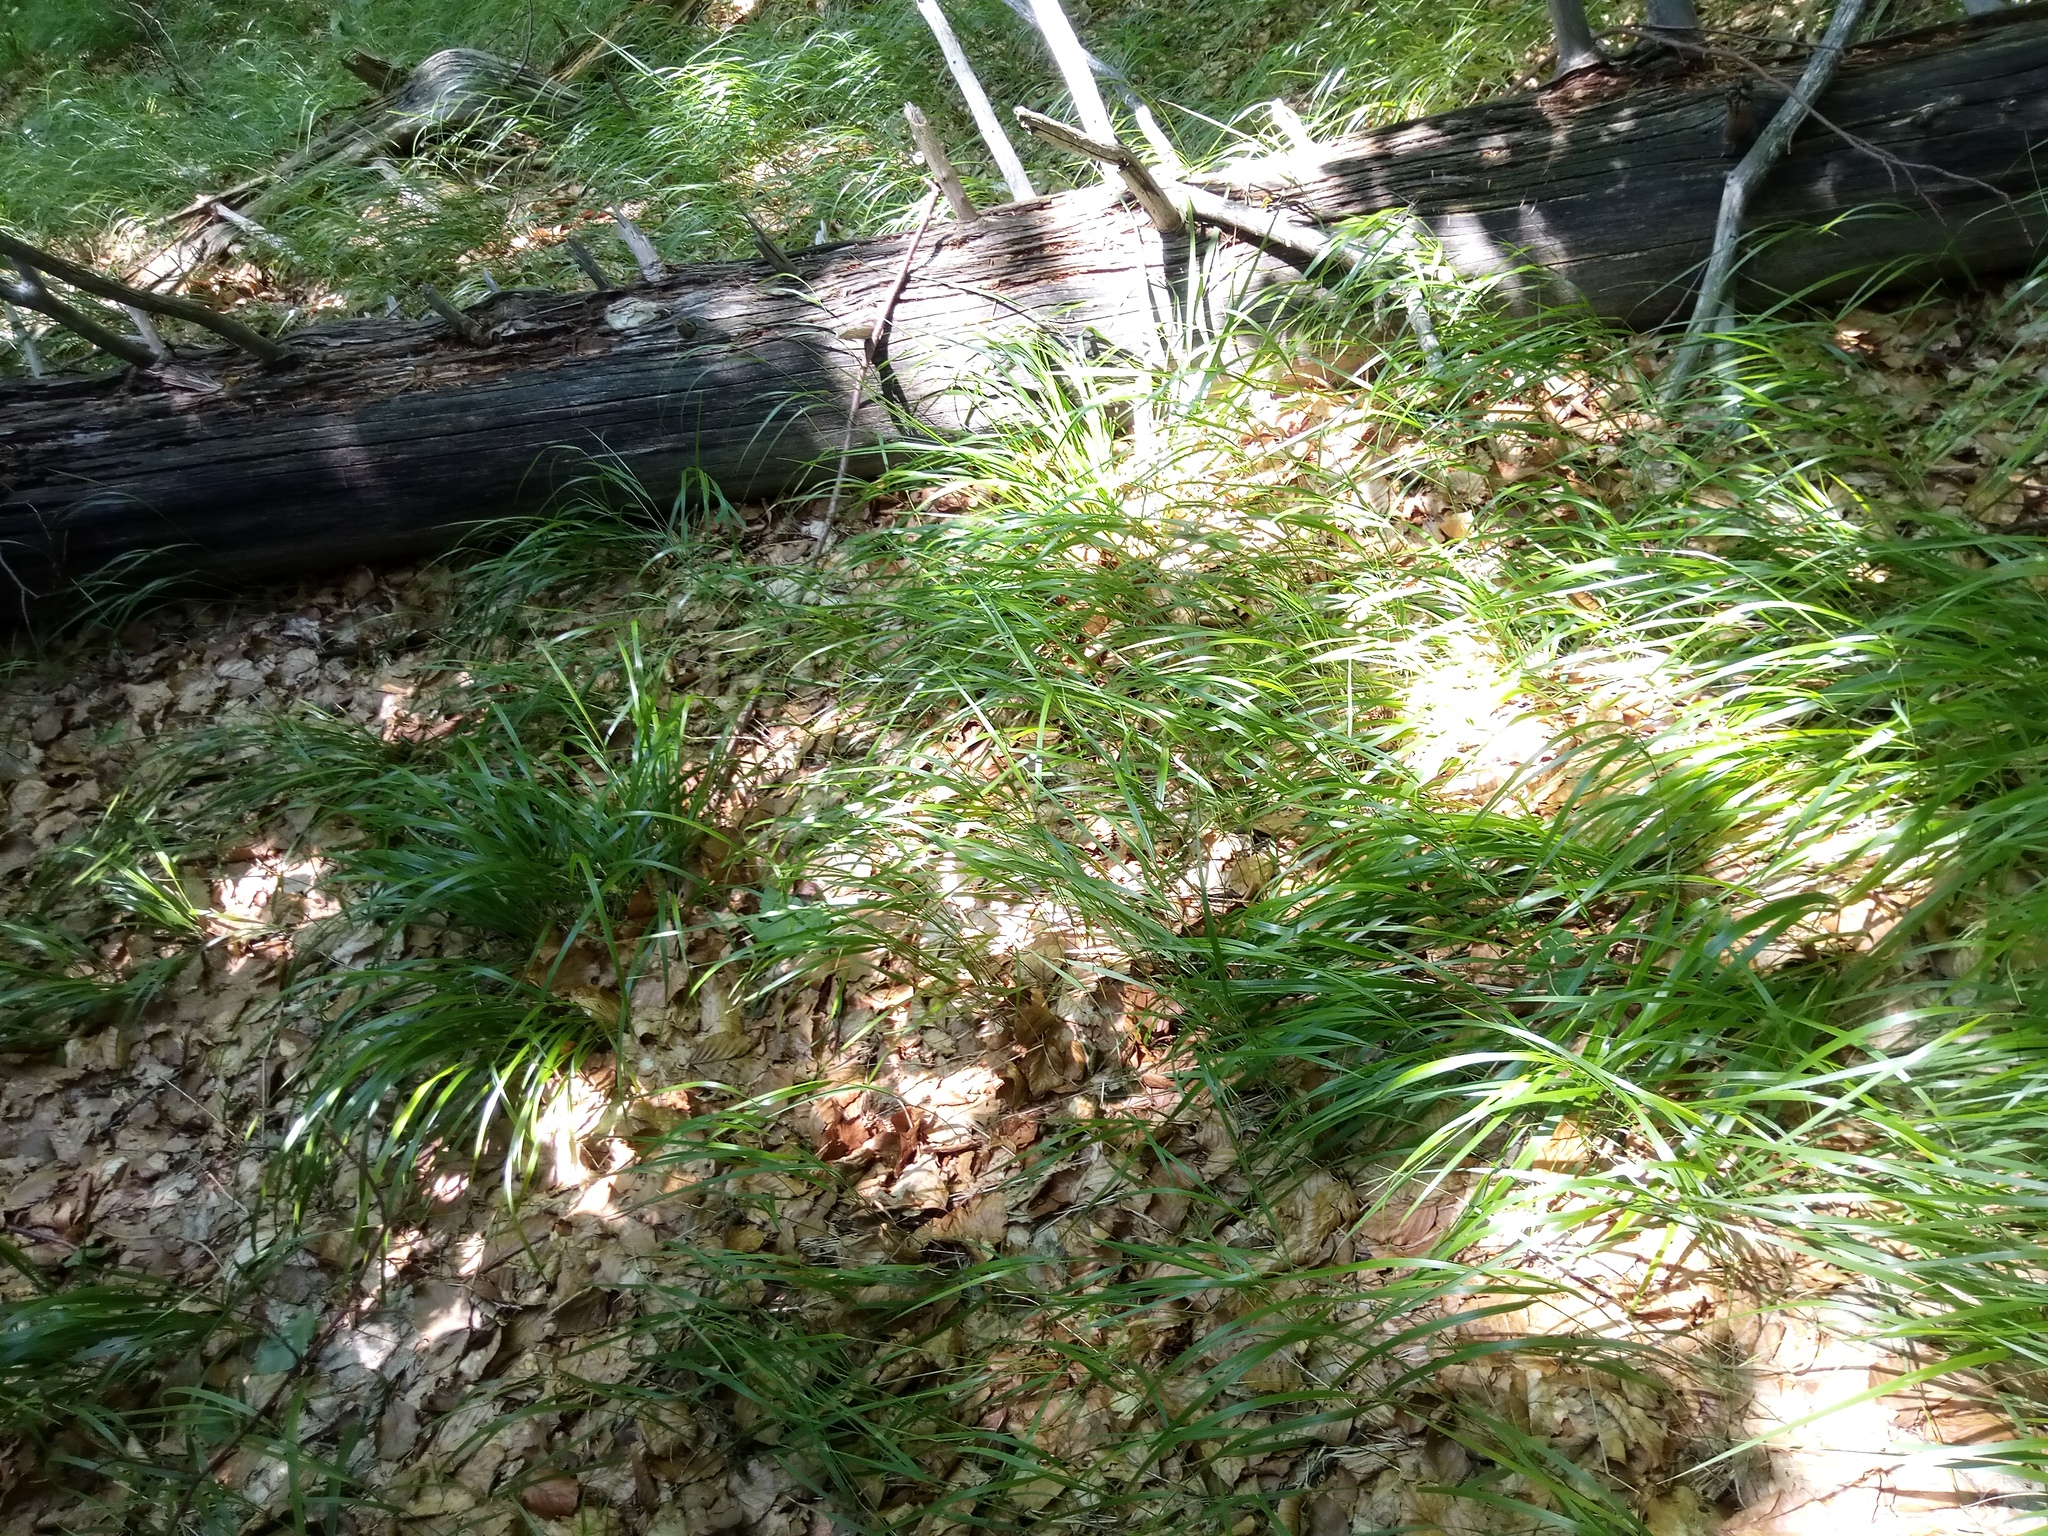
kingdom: Plantae
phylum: Tracheophyta
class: Liliopsida
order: Poales
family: Poaceae
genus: Calamagrostis
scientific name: Calamagrostis villosa
